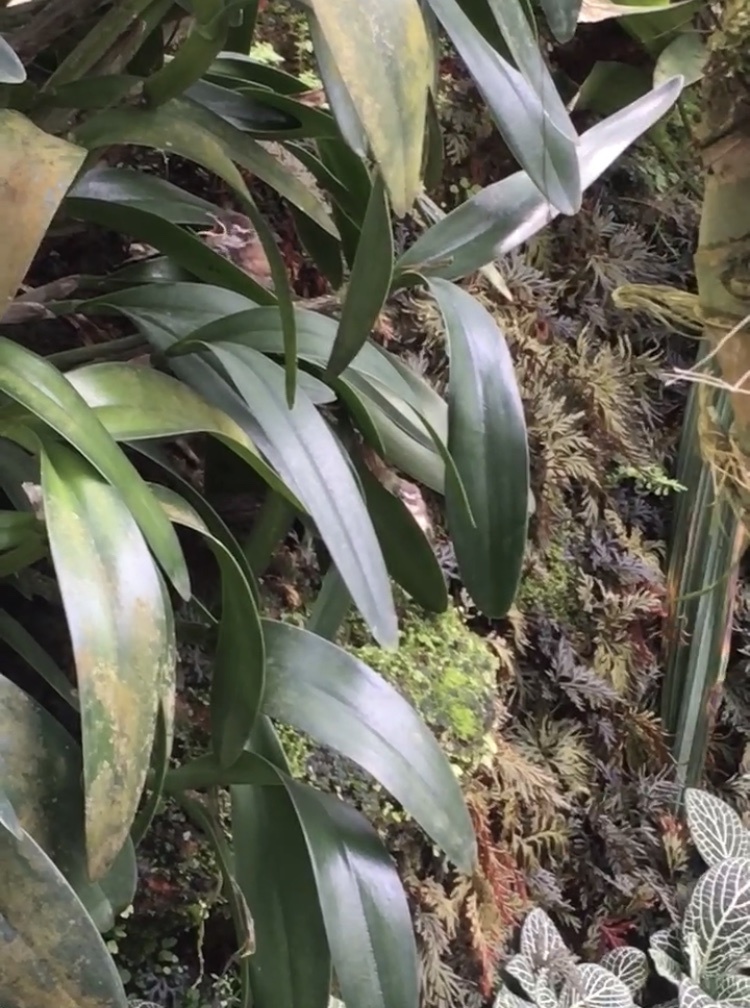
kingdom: Animalia
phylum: Chordata
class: Aves
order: Passeriformes
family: Troglodytidae
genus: Thryothorus
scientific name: Thryothorus ludovicianus
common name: Carolina wren
